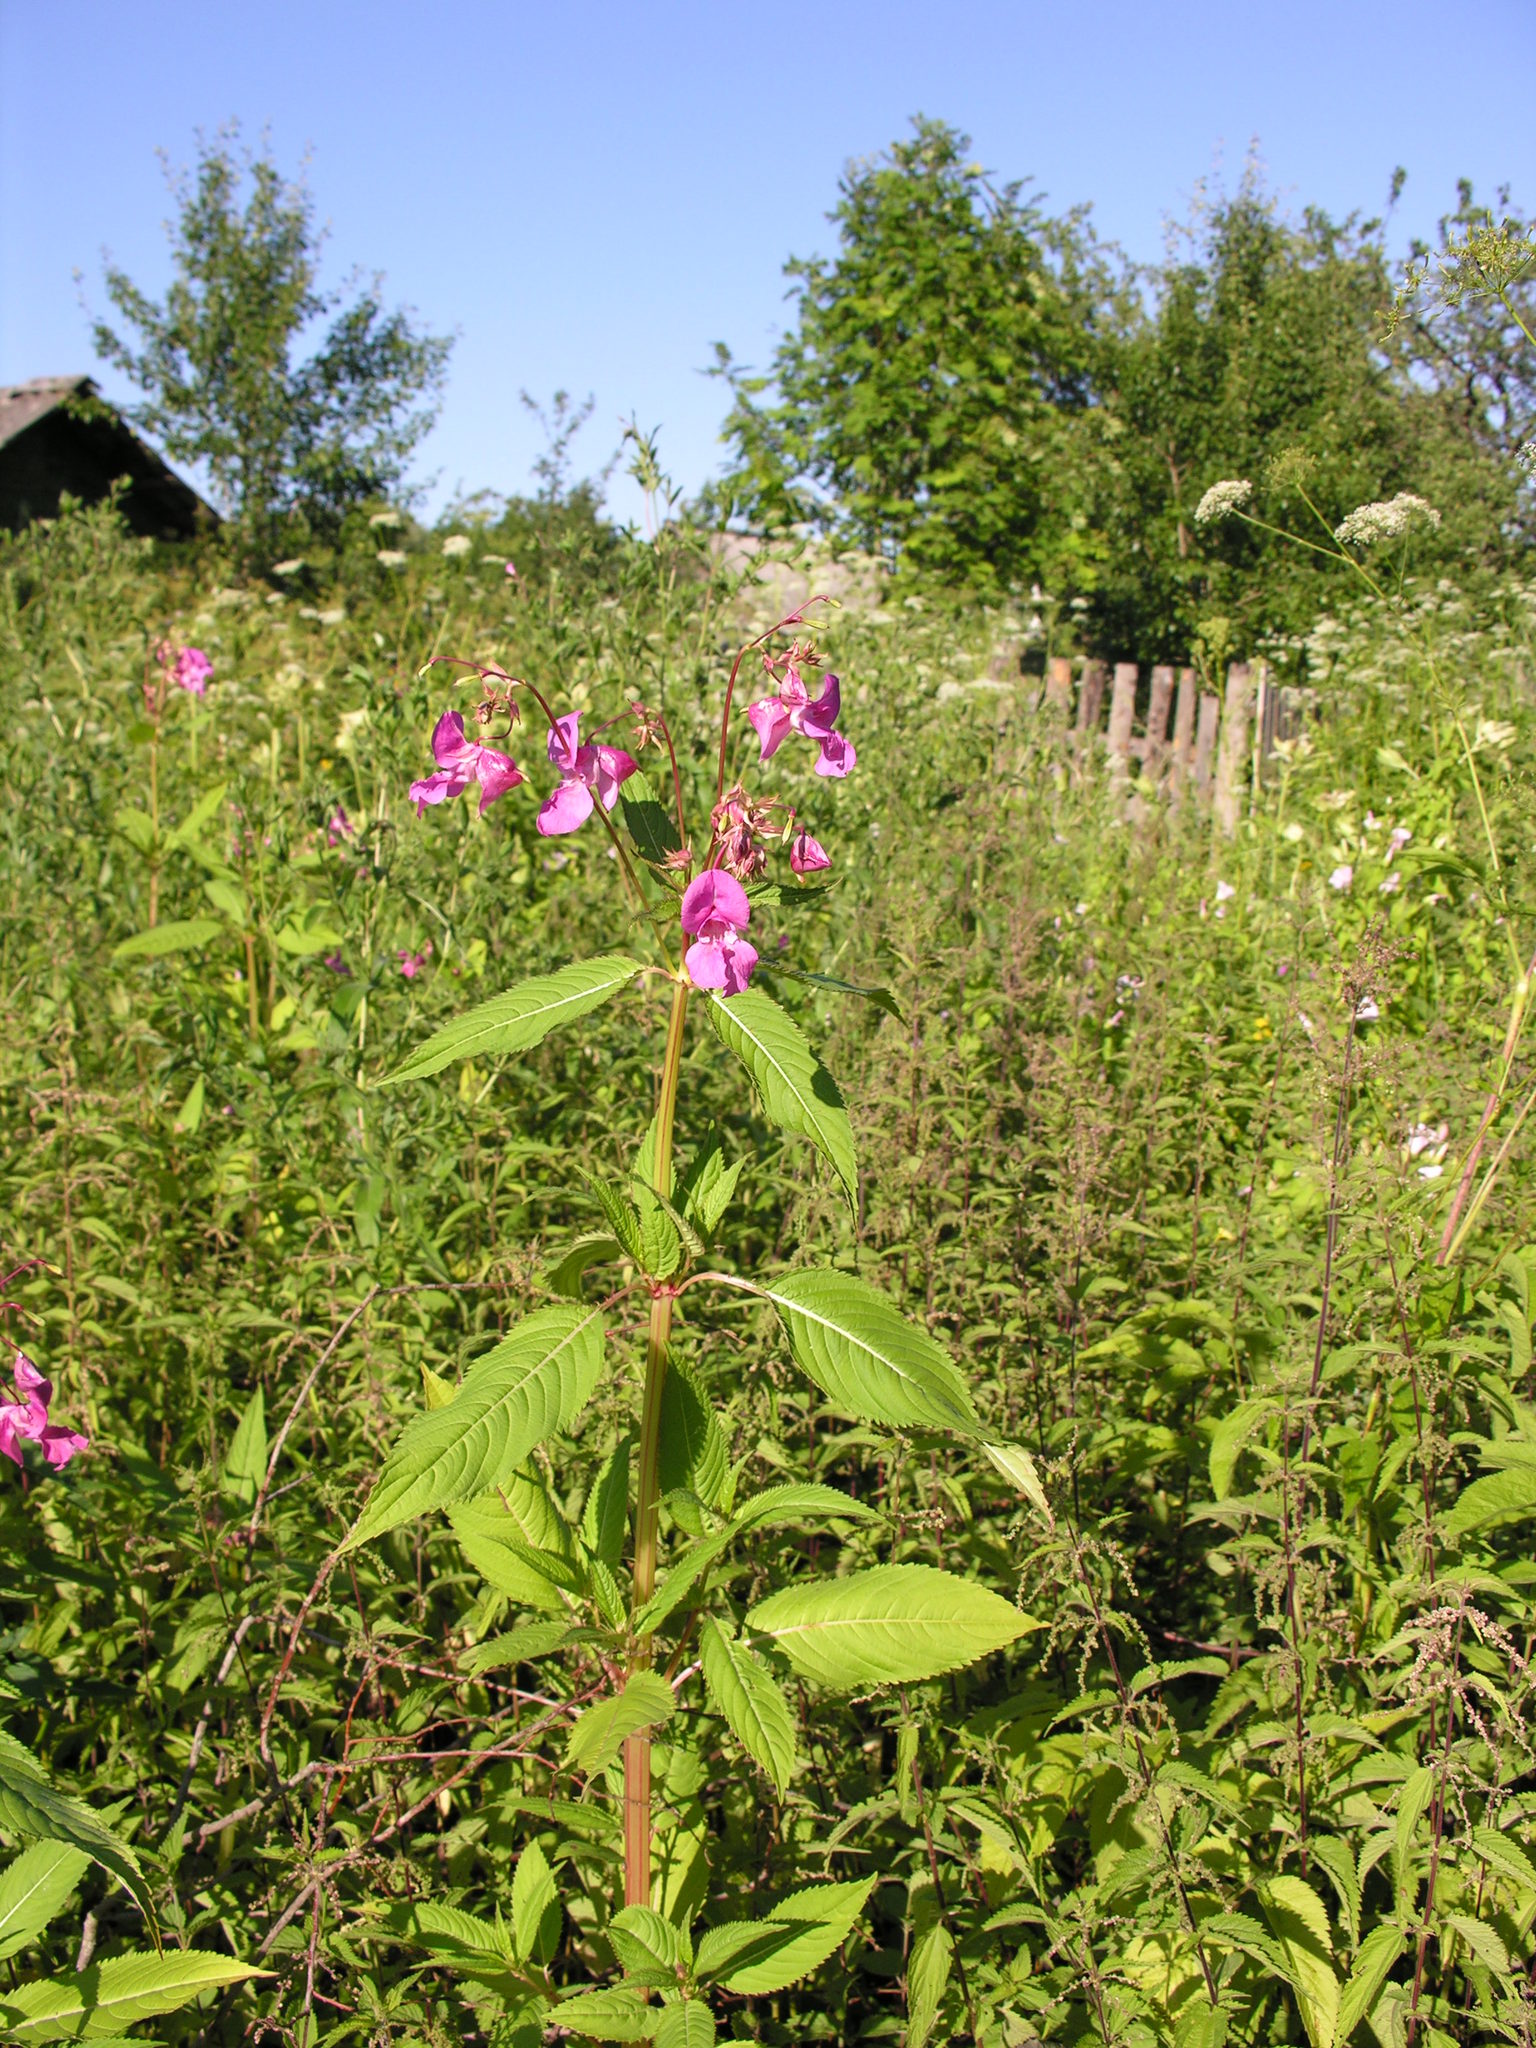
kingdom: Plantae
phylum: Tracheophyta
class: Magnoliopsida
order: Ericales
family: Balsaminaceae
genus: Impatiens
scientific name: Impatiens glandulifera
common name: Himalayan balsam
